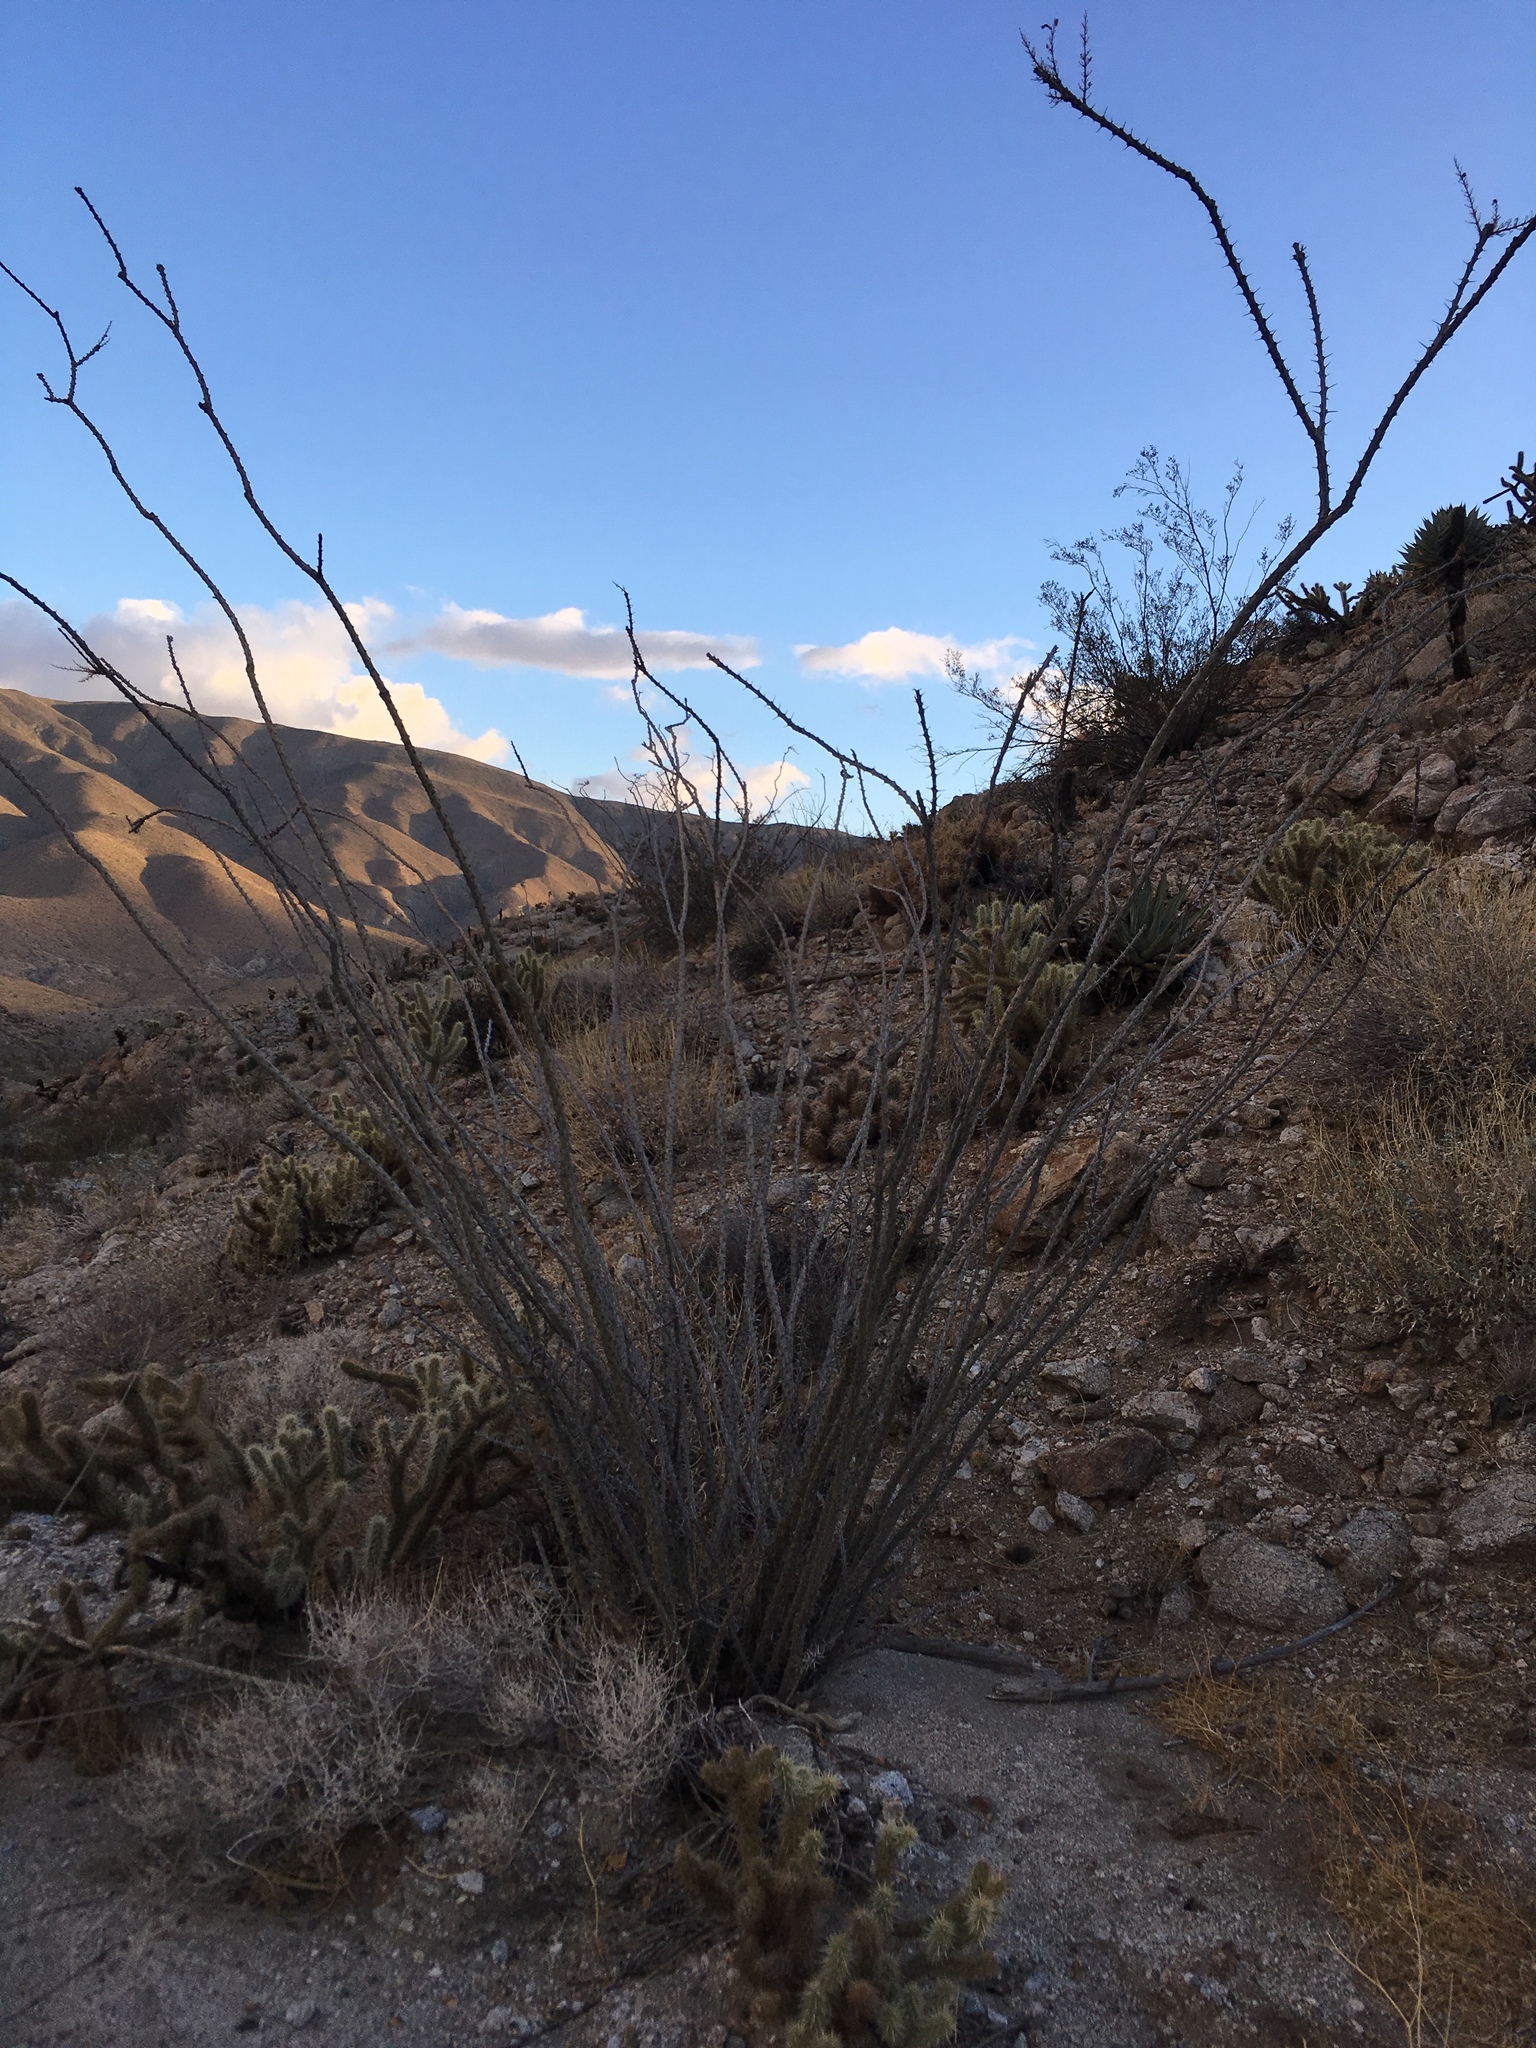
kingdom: Plantae
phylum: Tracheophyta
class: Magnoliopsida
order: Ericales
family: Fouquieriaceae
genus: Fouquieria
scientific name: Fouquieria splendens
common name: Vine-cactus
